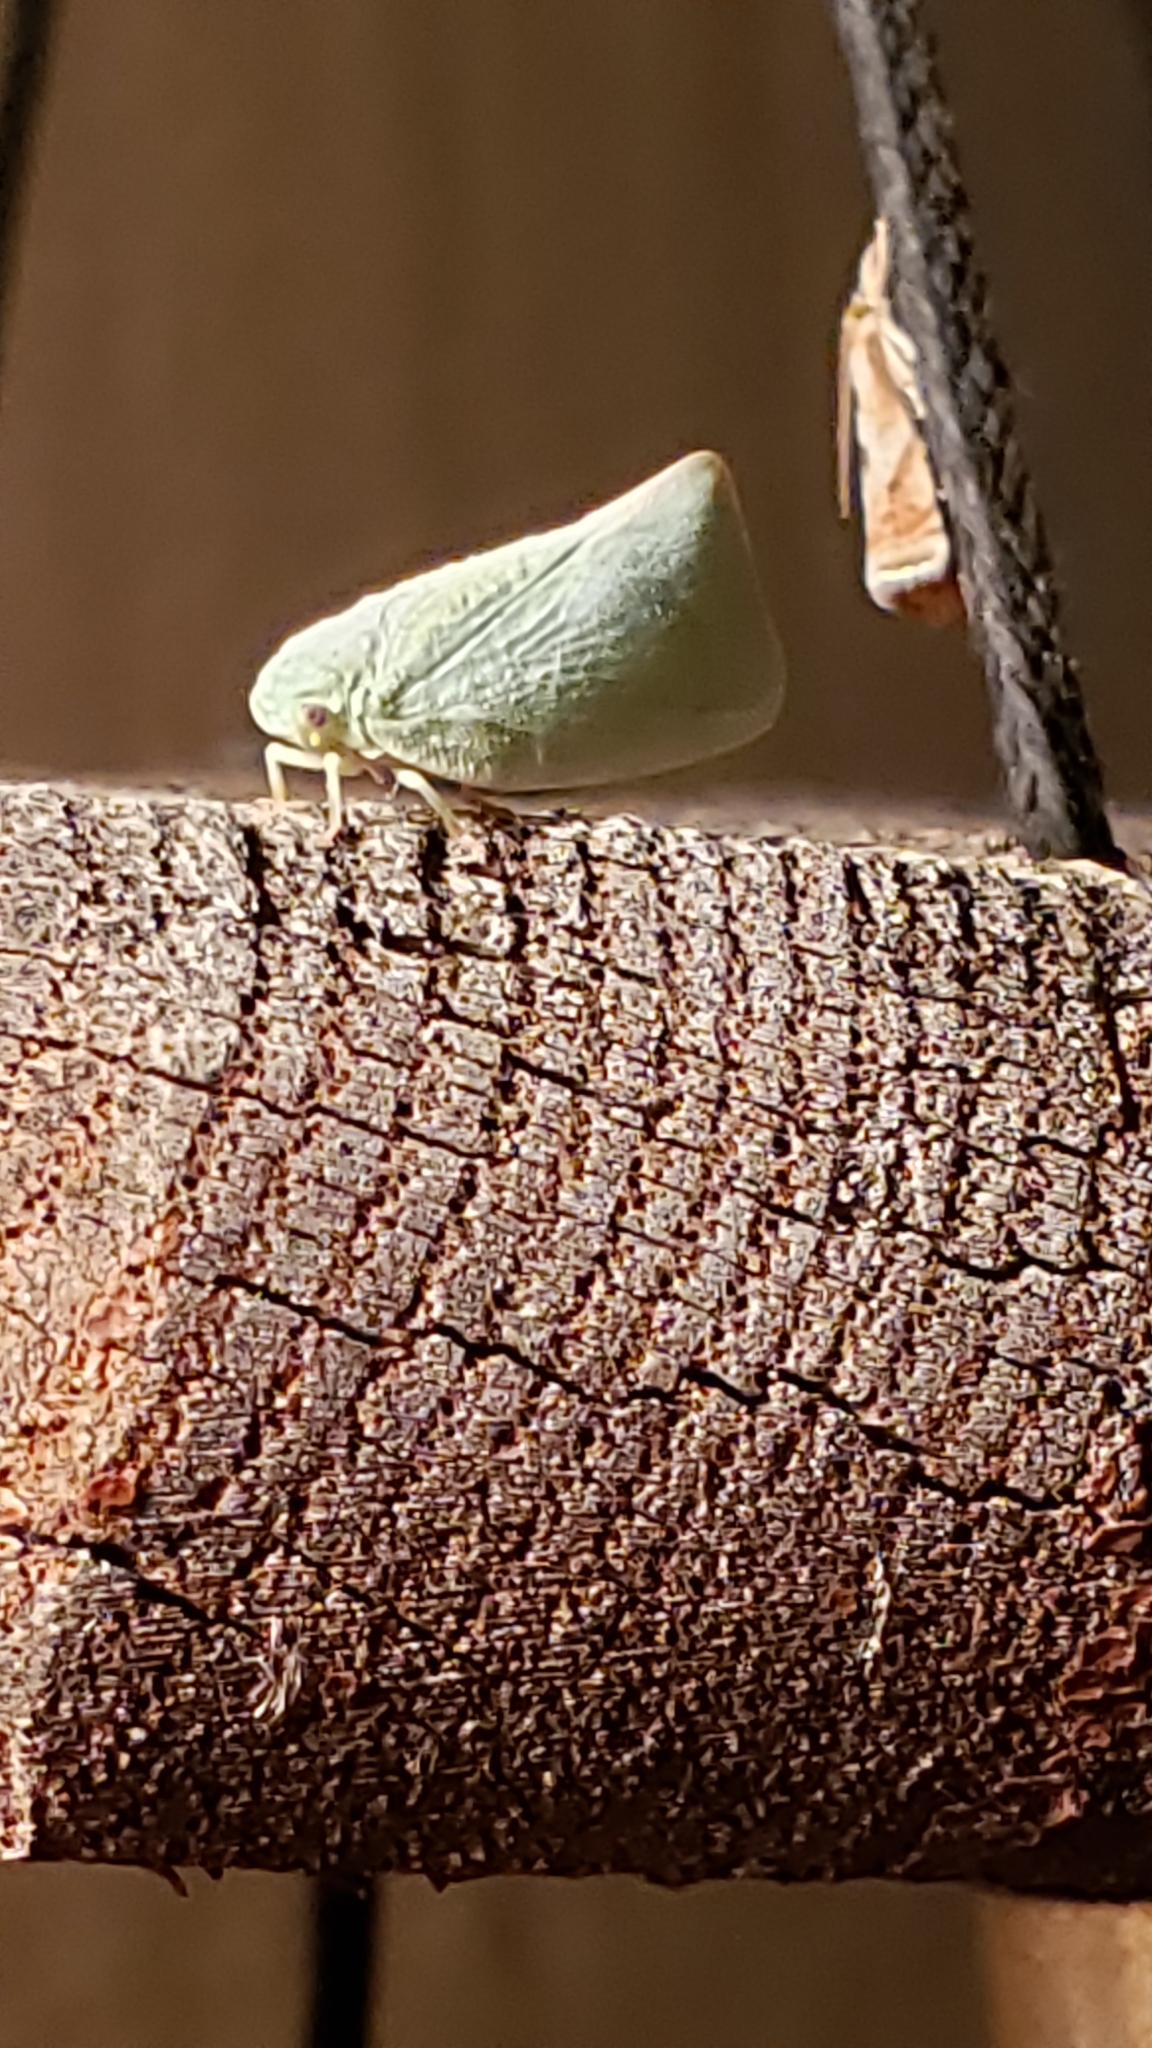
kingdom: Animalia
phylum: Arthropoda
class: Insecta
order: Hemiptera
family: Flatidae
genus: Flatormenis
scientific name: Flatormenis proxima
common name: Northern flatid planthopper
